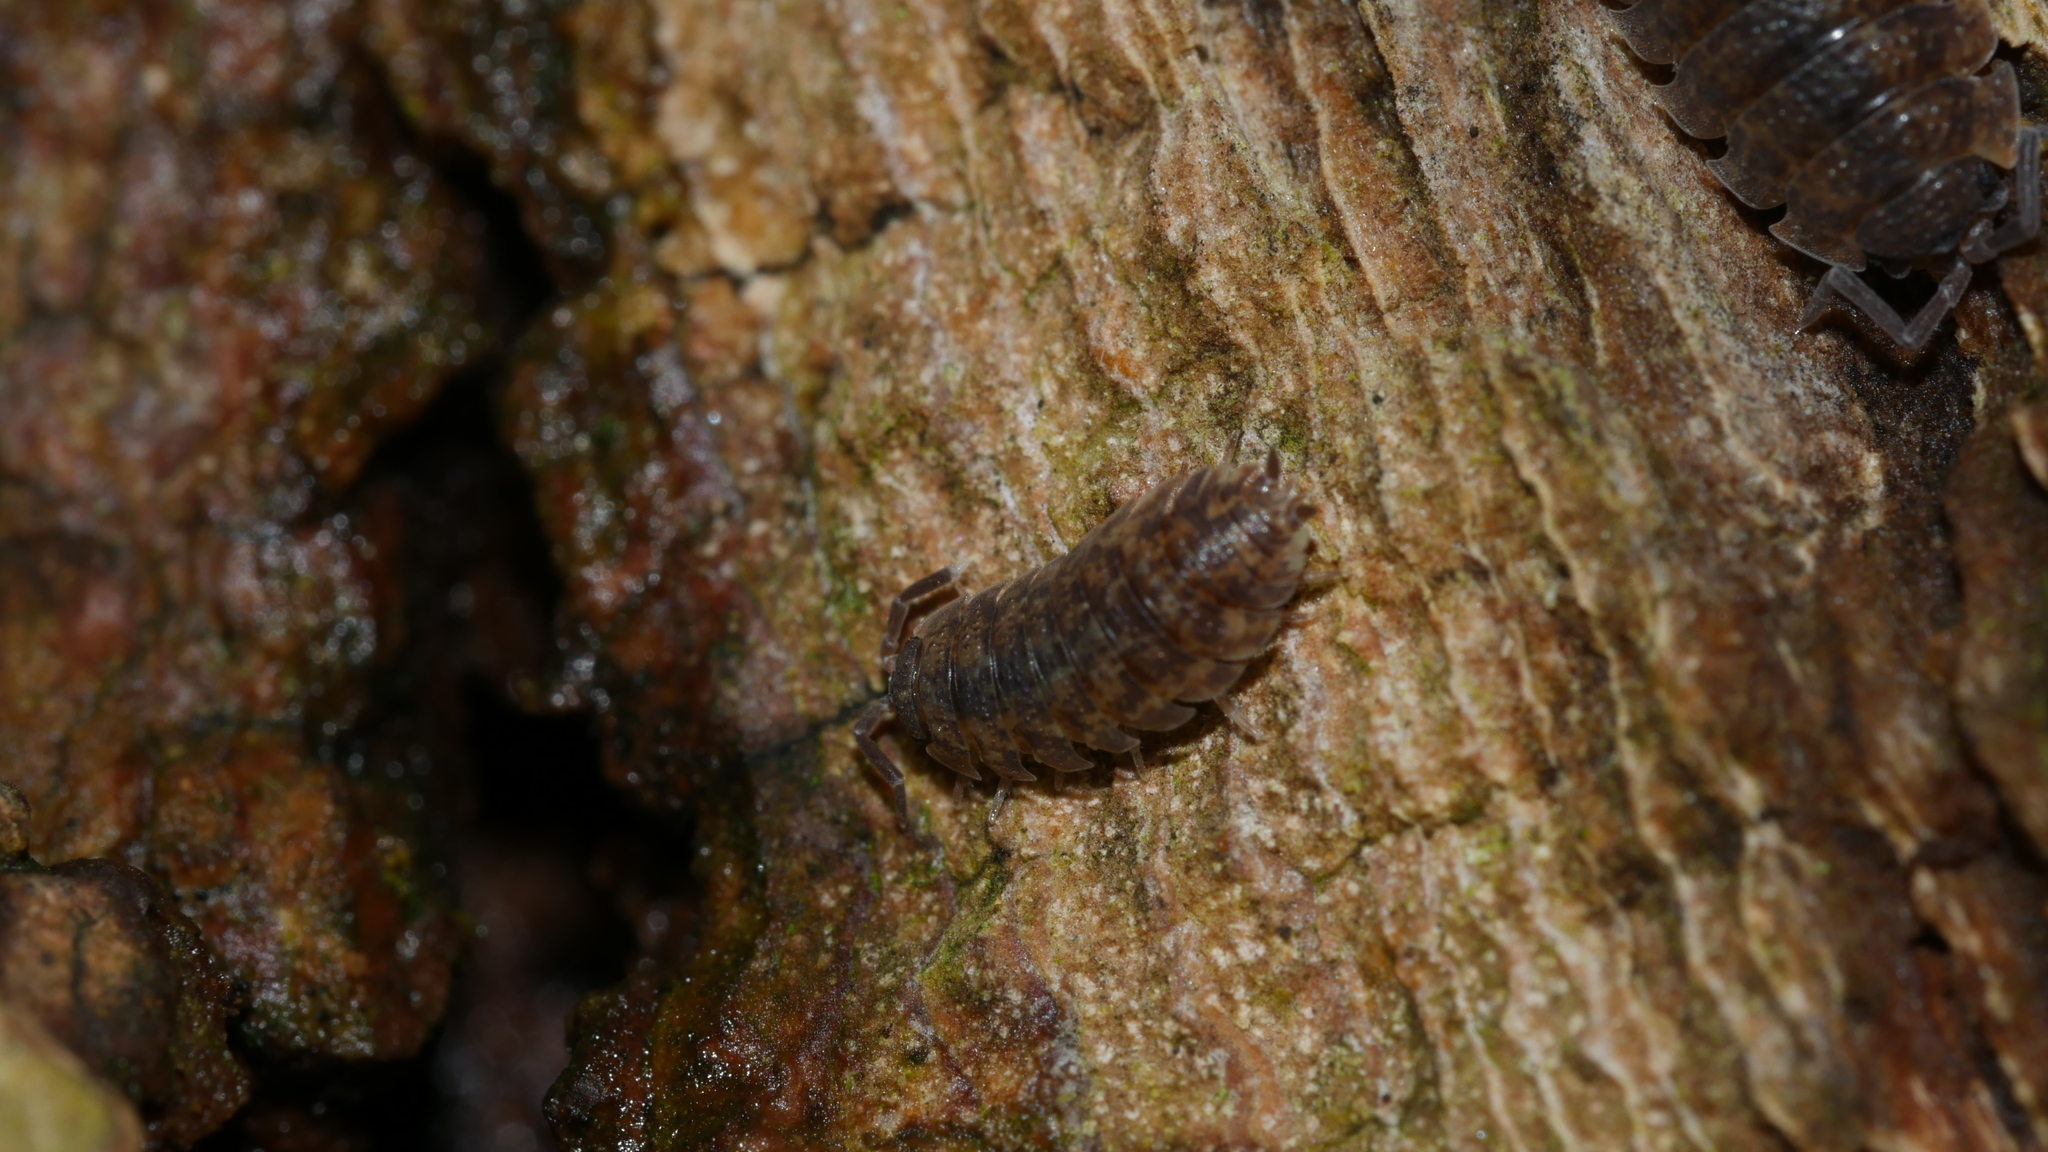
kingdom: Animalia
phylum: Arthropoda
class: Malacostraca
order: Isopoda
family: Porcellionidae
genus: Porcellio
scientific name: Porcellio scaber
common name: Common rough woodlouse
